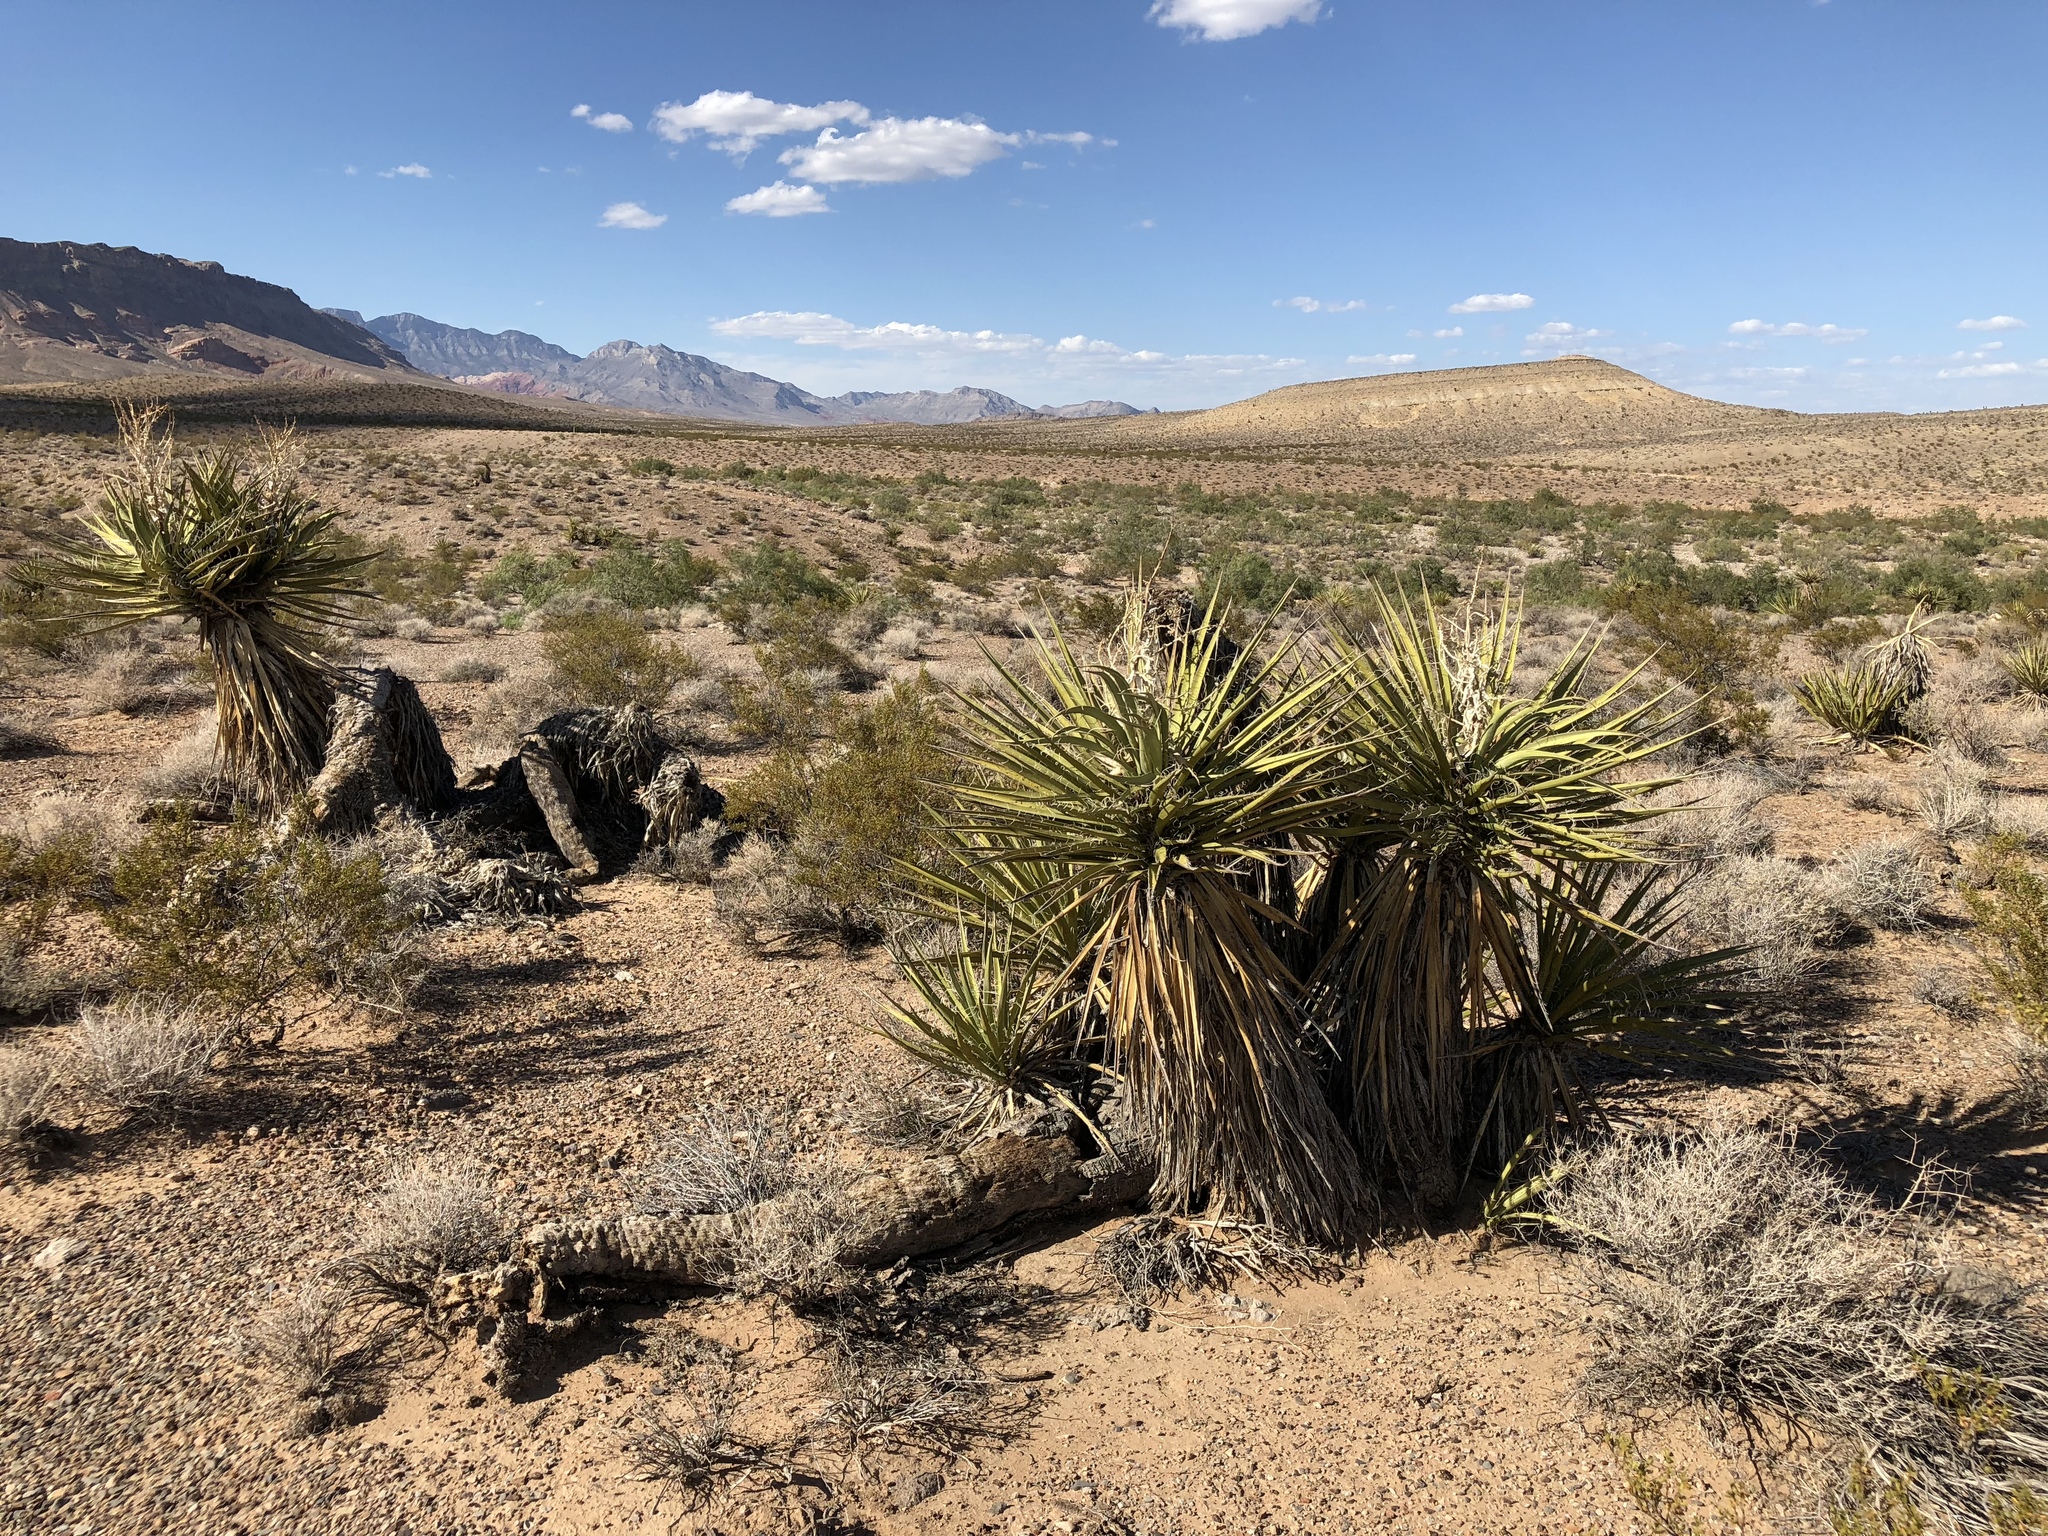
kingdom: Plantae
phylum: Tracheophyta
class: Liliopsida
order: Asparagales
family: Asparagaceae
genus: Yucca
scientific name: Yucca schidigera
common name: Mojave yucca
